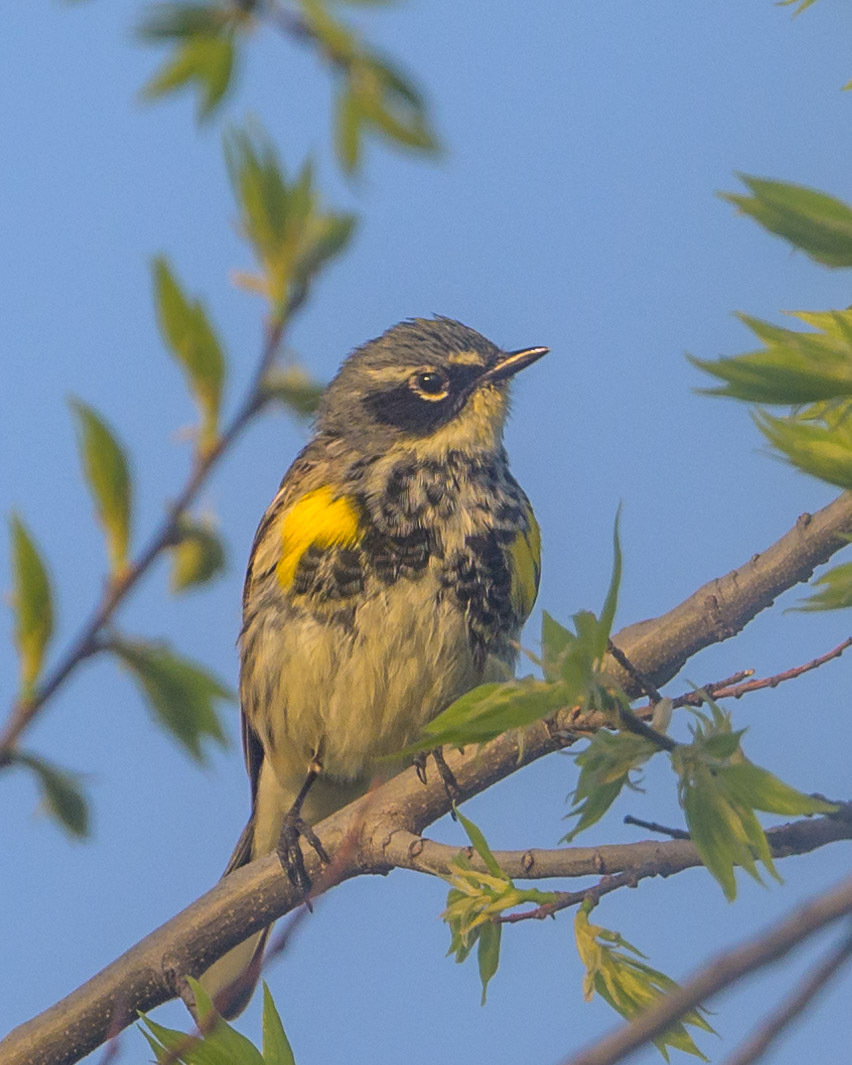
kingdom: Animalia
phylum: Chordata
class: Aves
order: Passeriformes
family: Parulidae
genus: Setophaga
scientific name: Setophaga coronata
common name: Myrtle warbler
